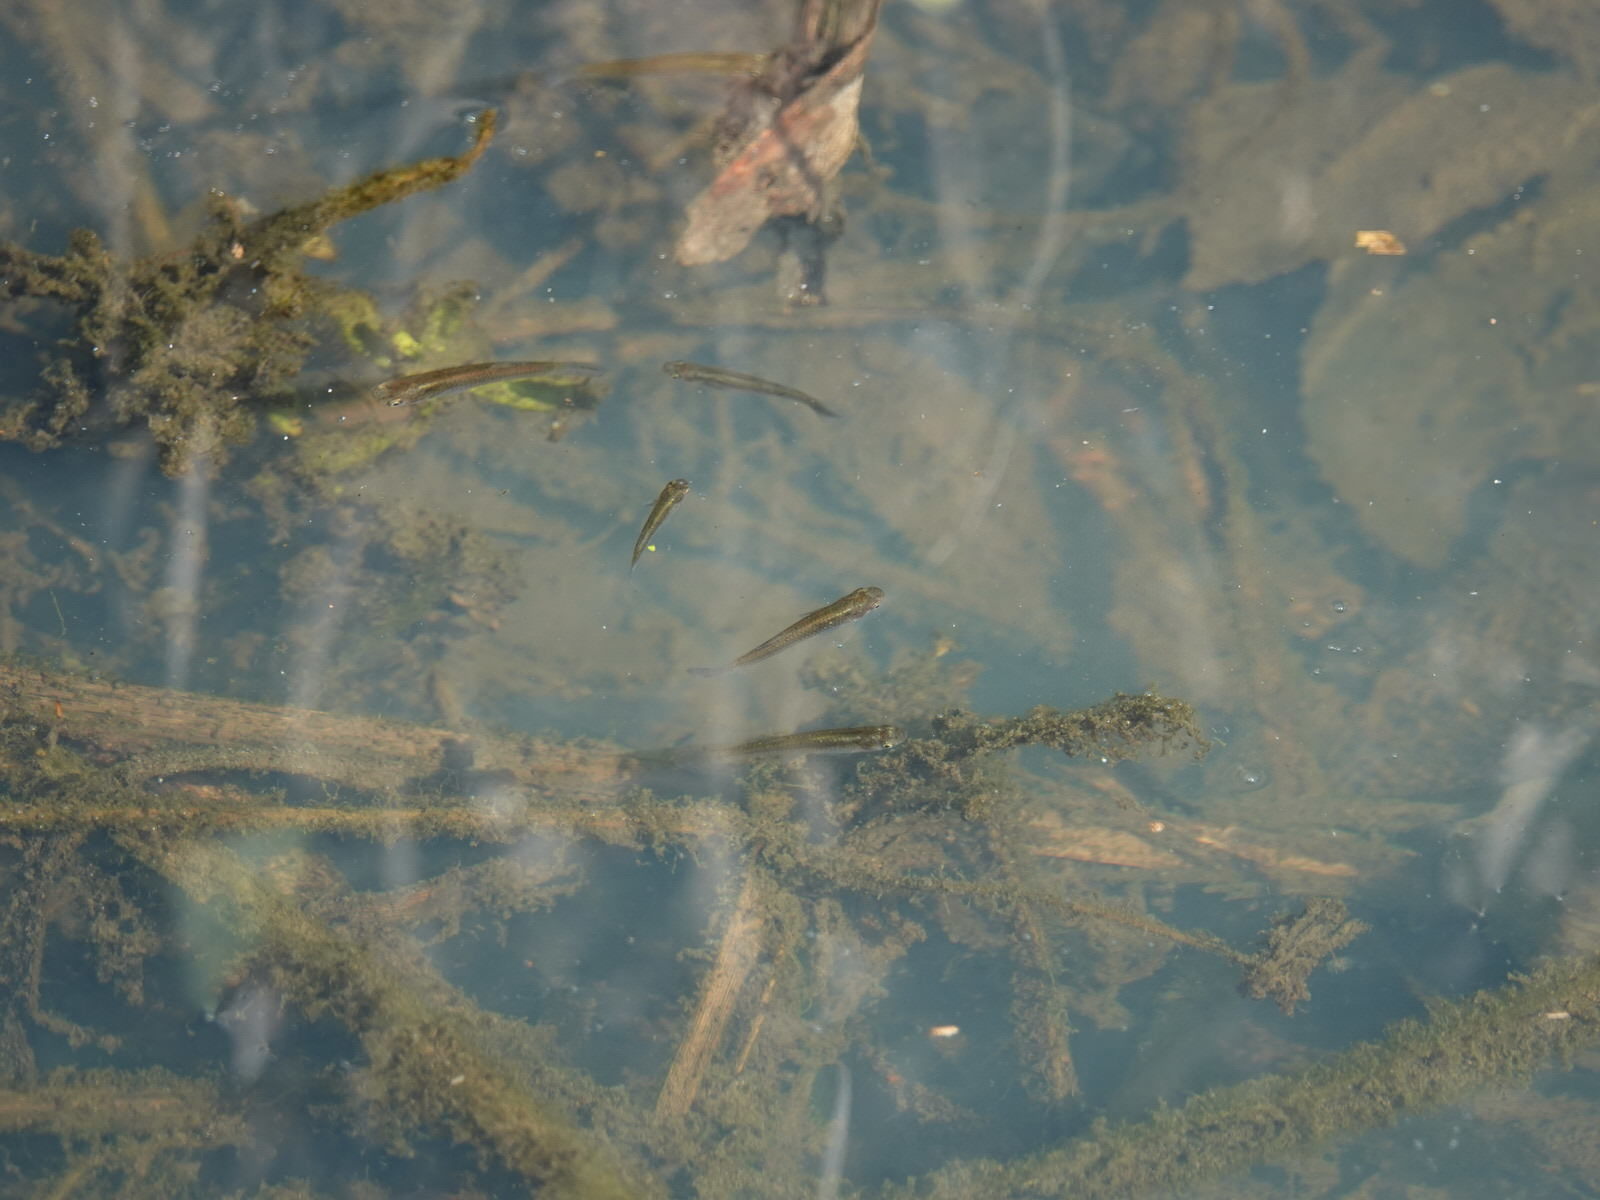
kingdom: Animalia
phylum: Chordata
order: Cyprinodontiformes
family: Poeciliidae
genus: Gambusia
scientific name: Gambusia affinis
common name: Mosquitofish
